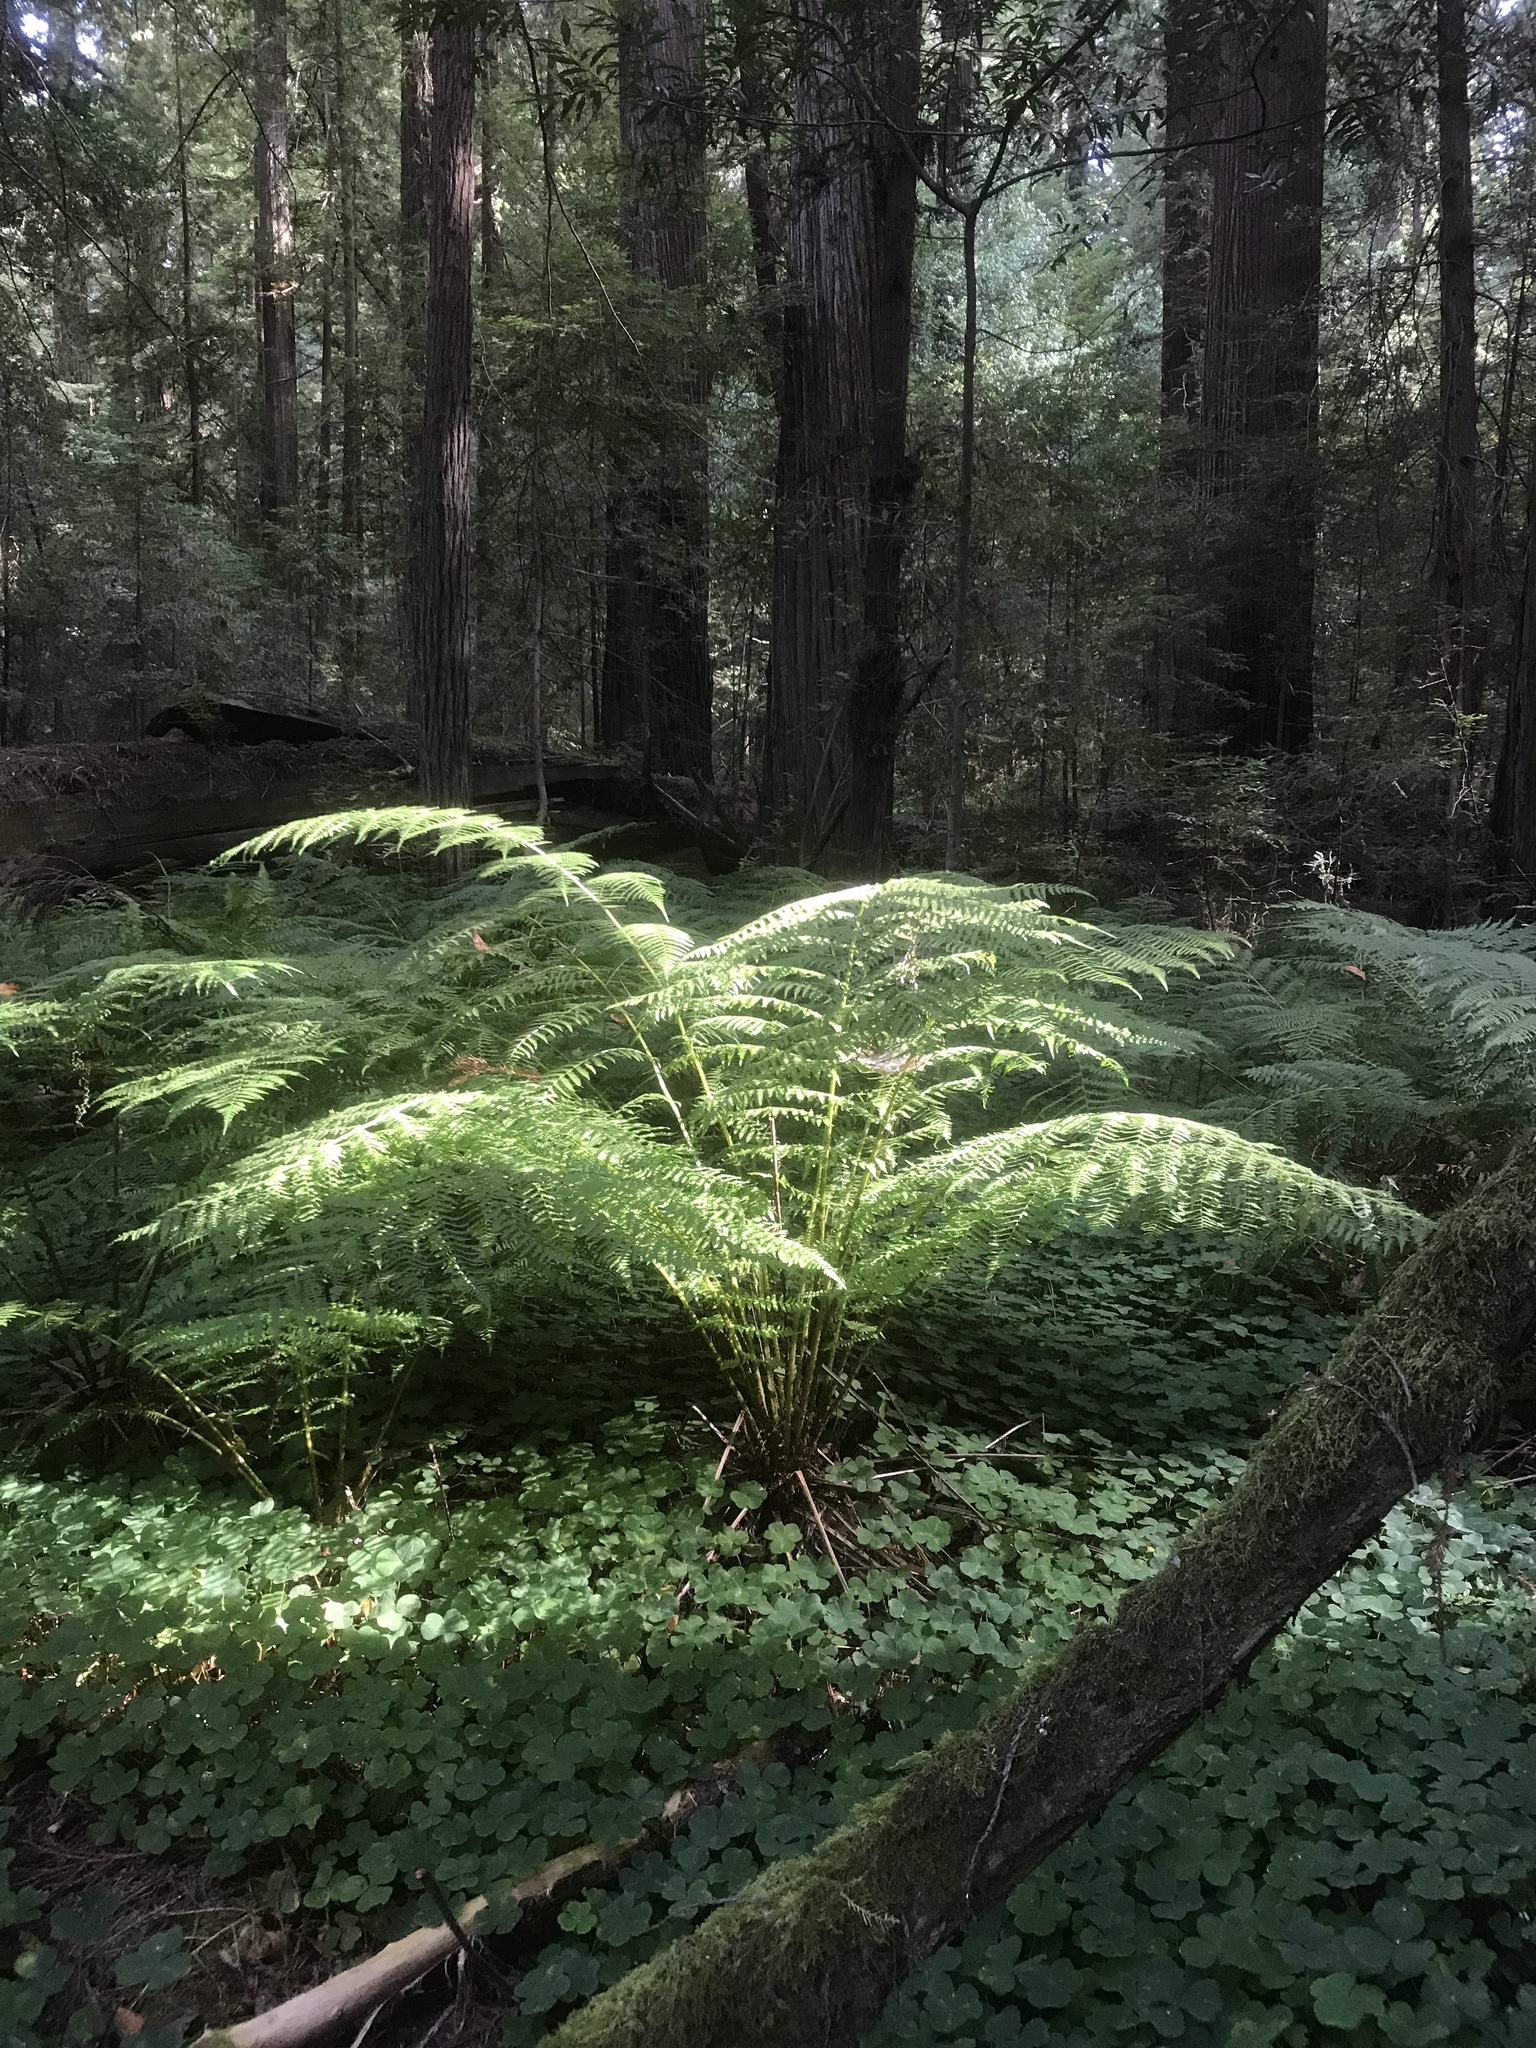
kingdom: Plantae
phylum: Tracheophyta
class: Polypodiopsida
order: Polypodiales
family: Athyriaceae
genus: Athyrium
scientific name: Athyrium cyclosorum
